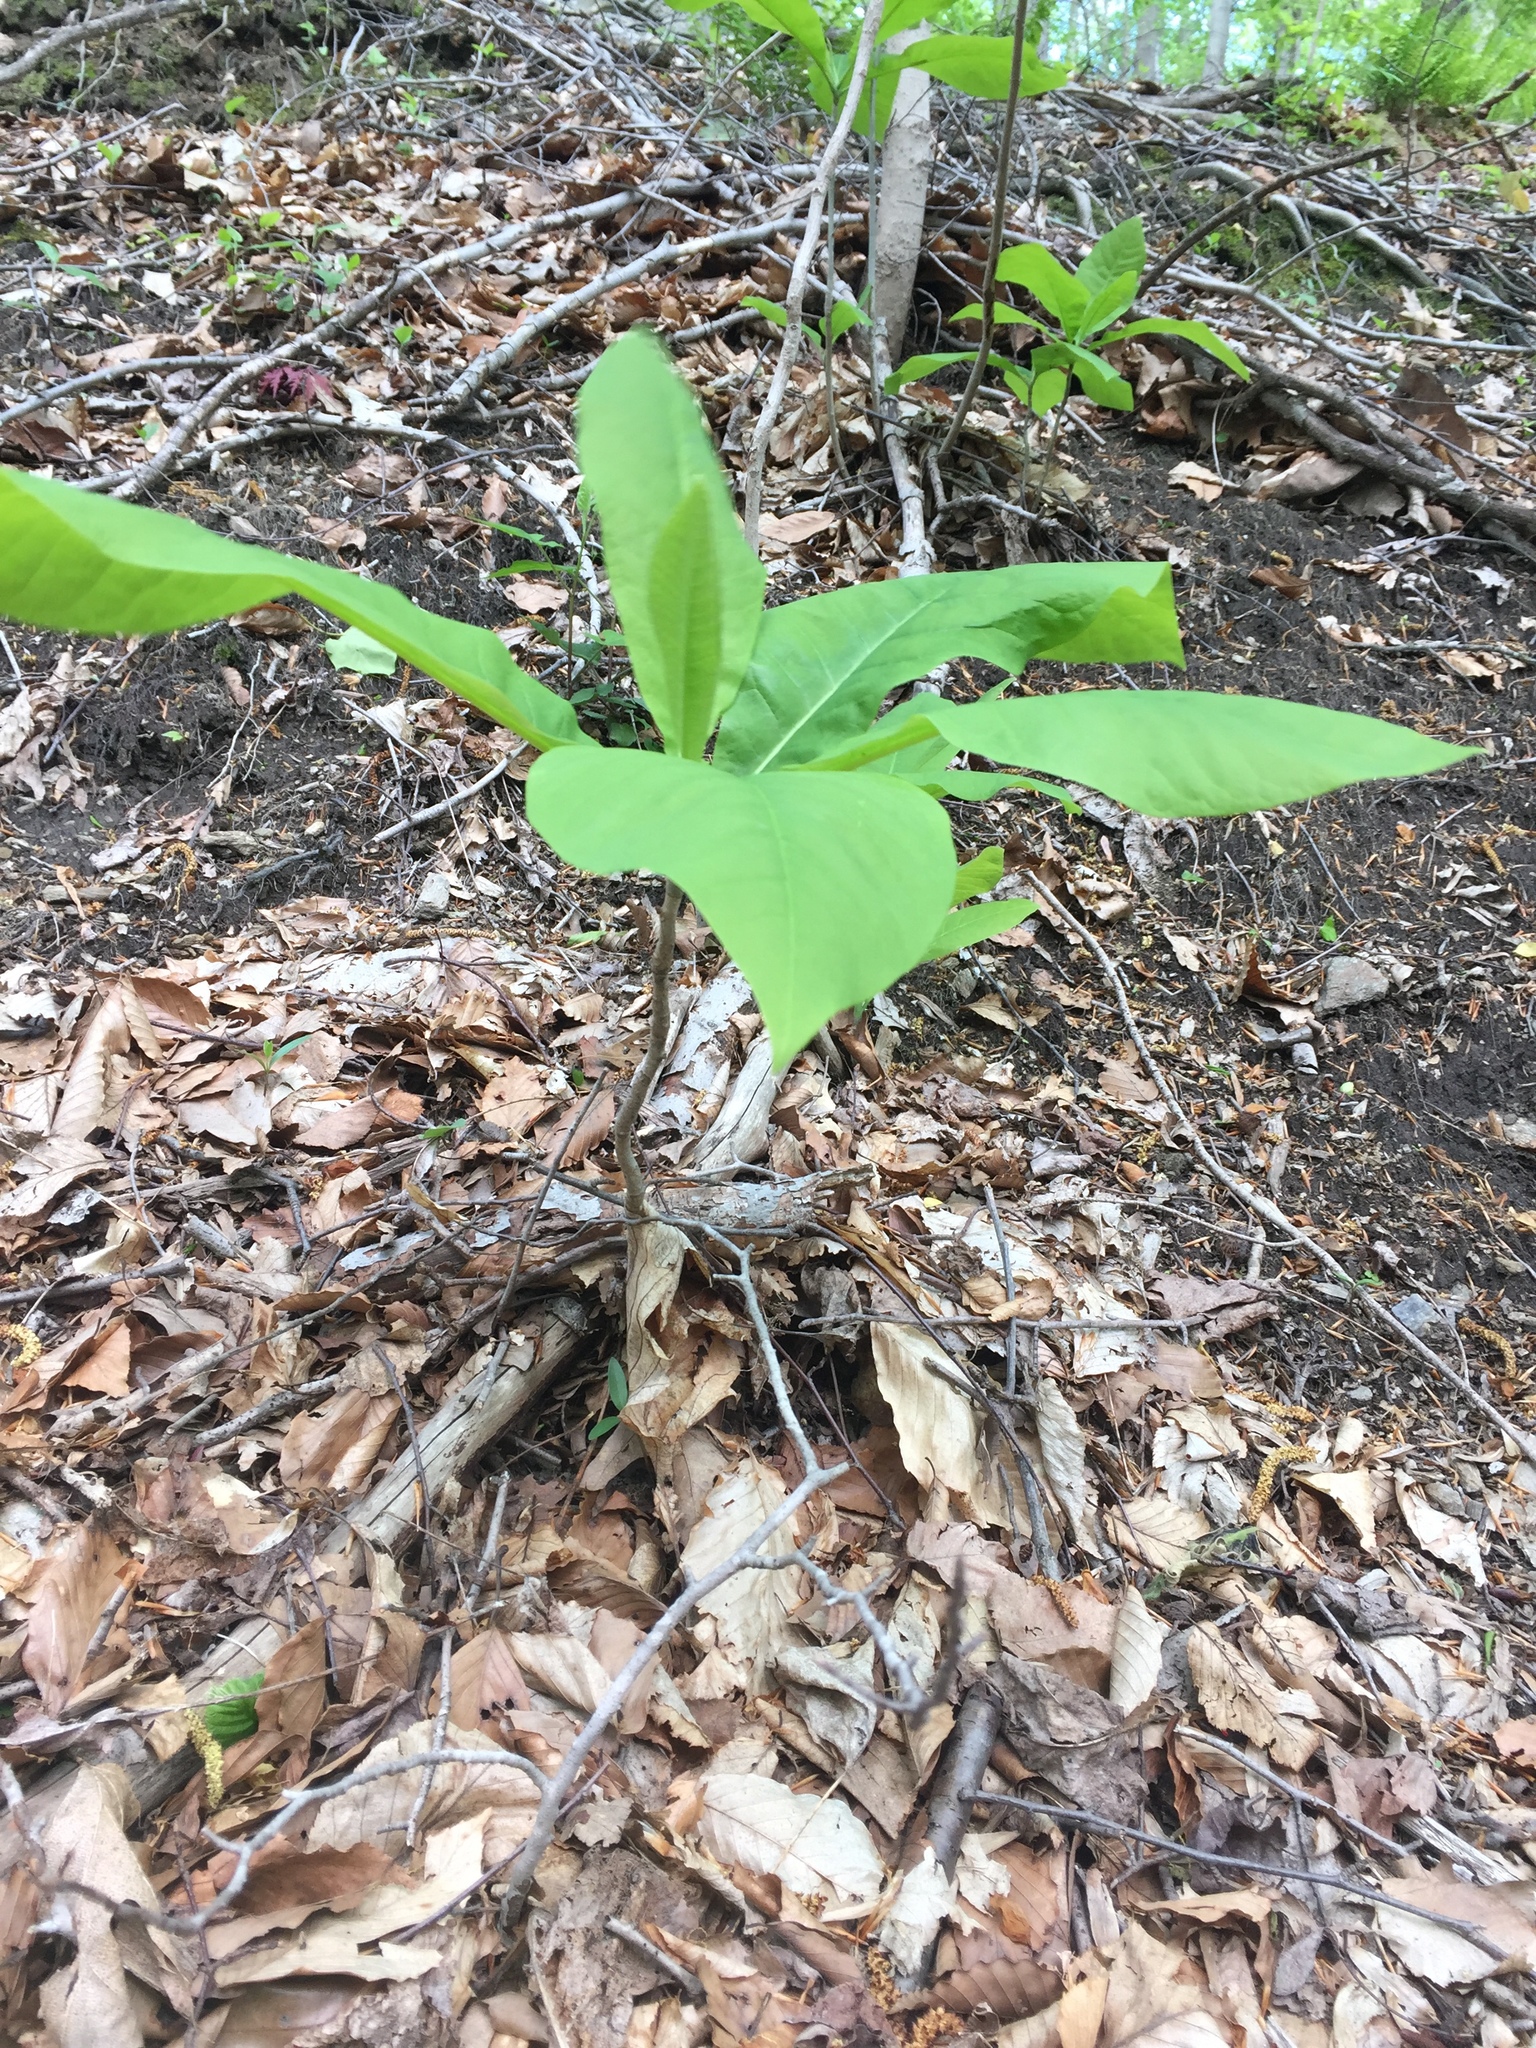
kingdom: Plantae
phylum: Tracheophyta
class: Magnoliopsida
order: Magnoliales
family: Magnoliaceae
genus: Magnolia
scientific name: Magnolia tripetala
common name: Umbrella magnolia
